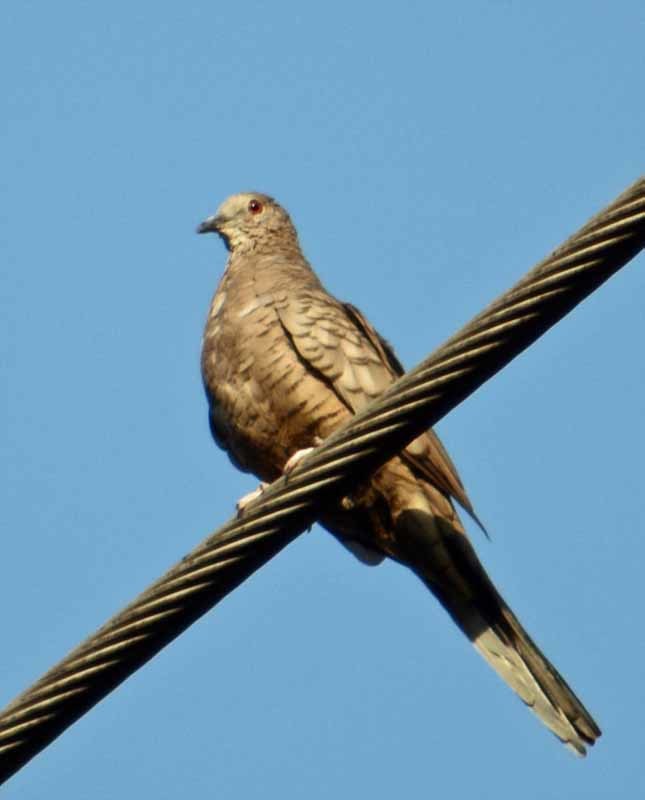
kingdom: Animalia
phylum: Chordata
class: Aves
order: Columbiformes
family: Columbidae
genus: Columbina
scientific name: Columbina inca
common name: Inca dove
